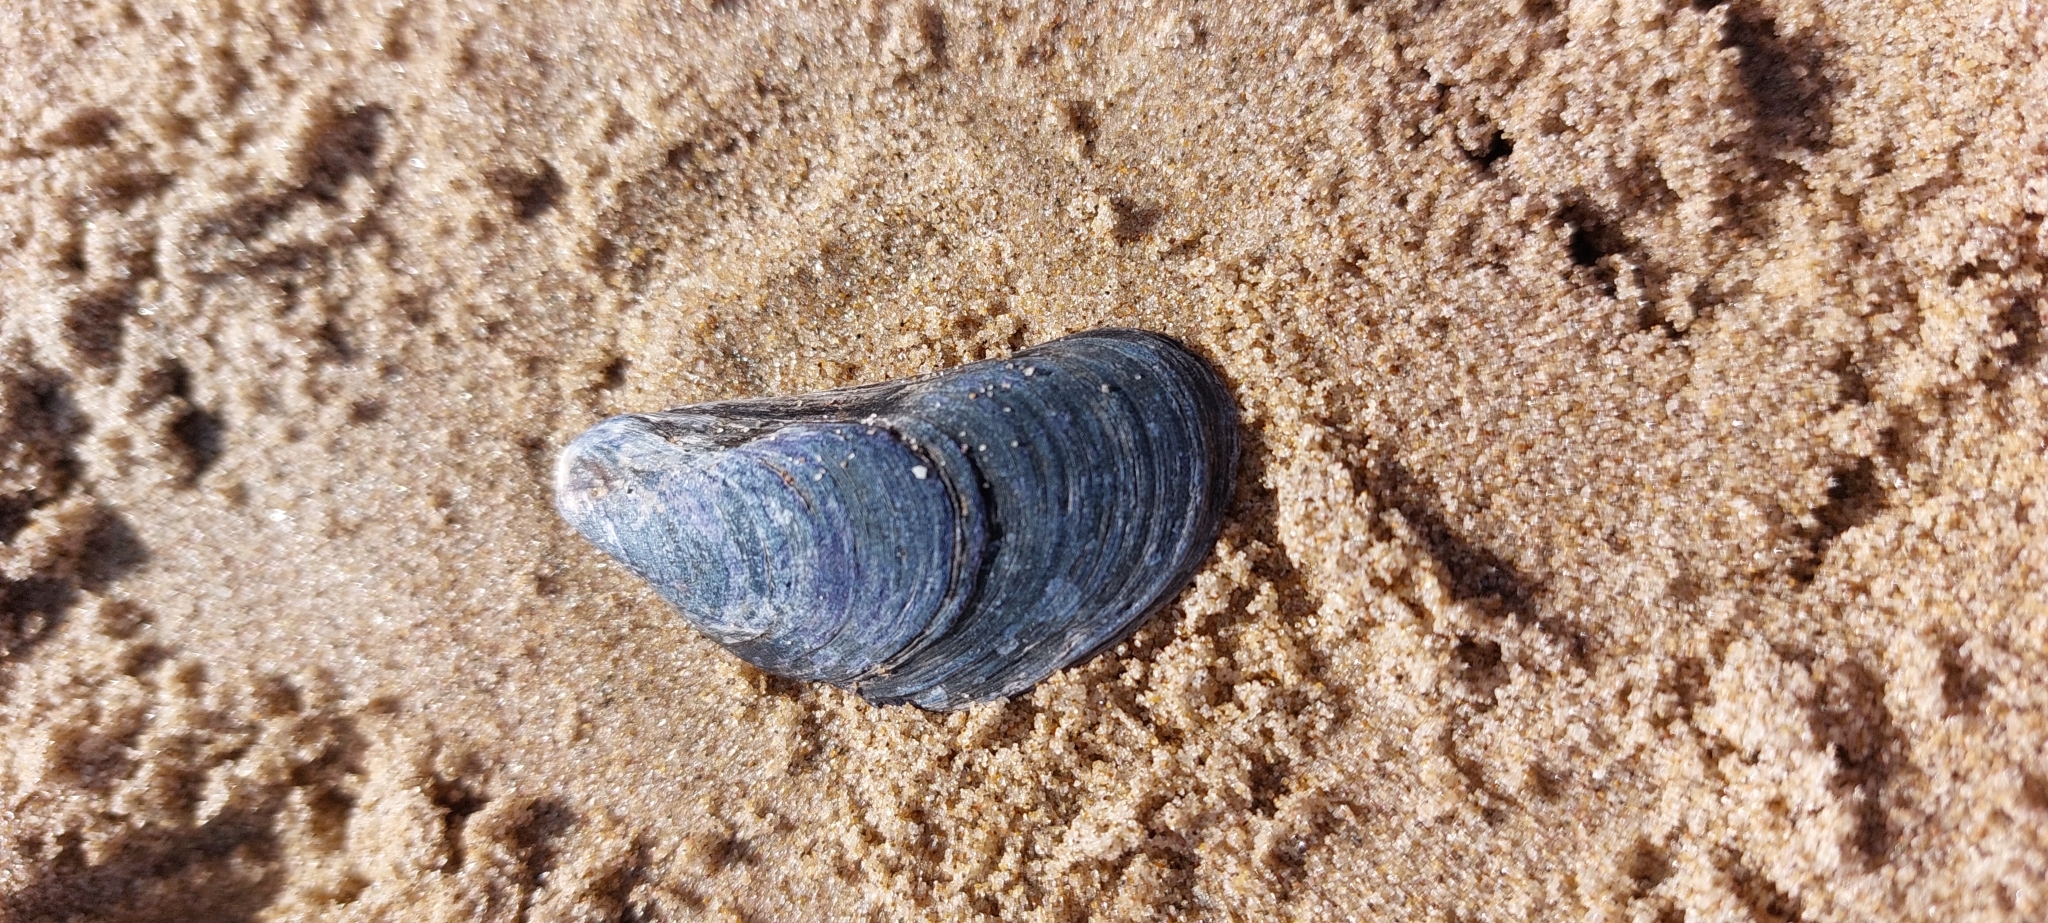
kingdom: Animalia
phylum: Mollusca
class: Bivalvia
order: Mytilida
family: Mytilidae
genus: Mytilus
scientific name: Mytilus edulis
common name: Blue mussel
